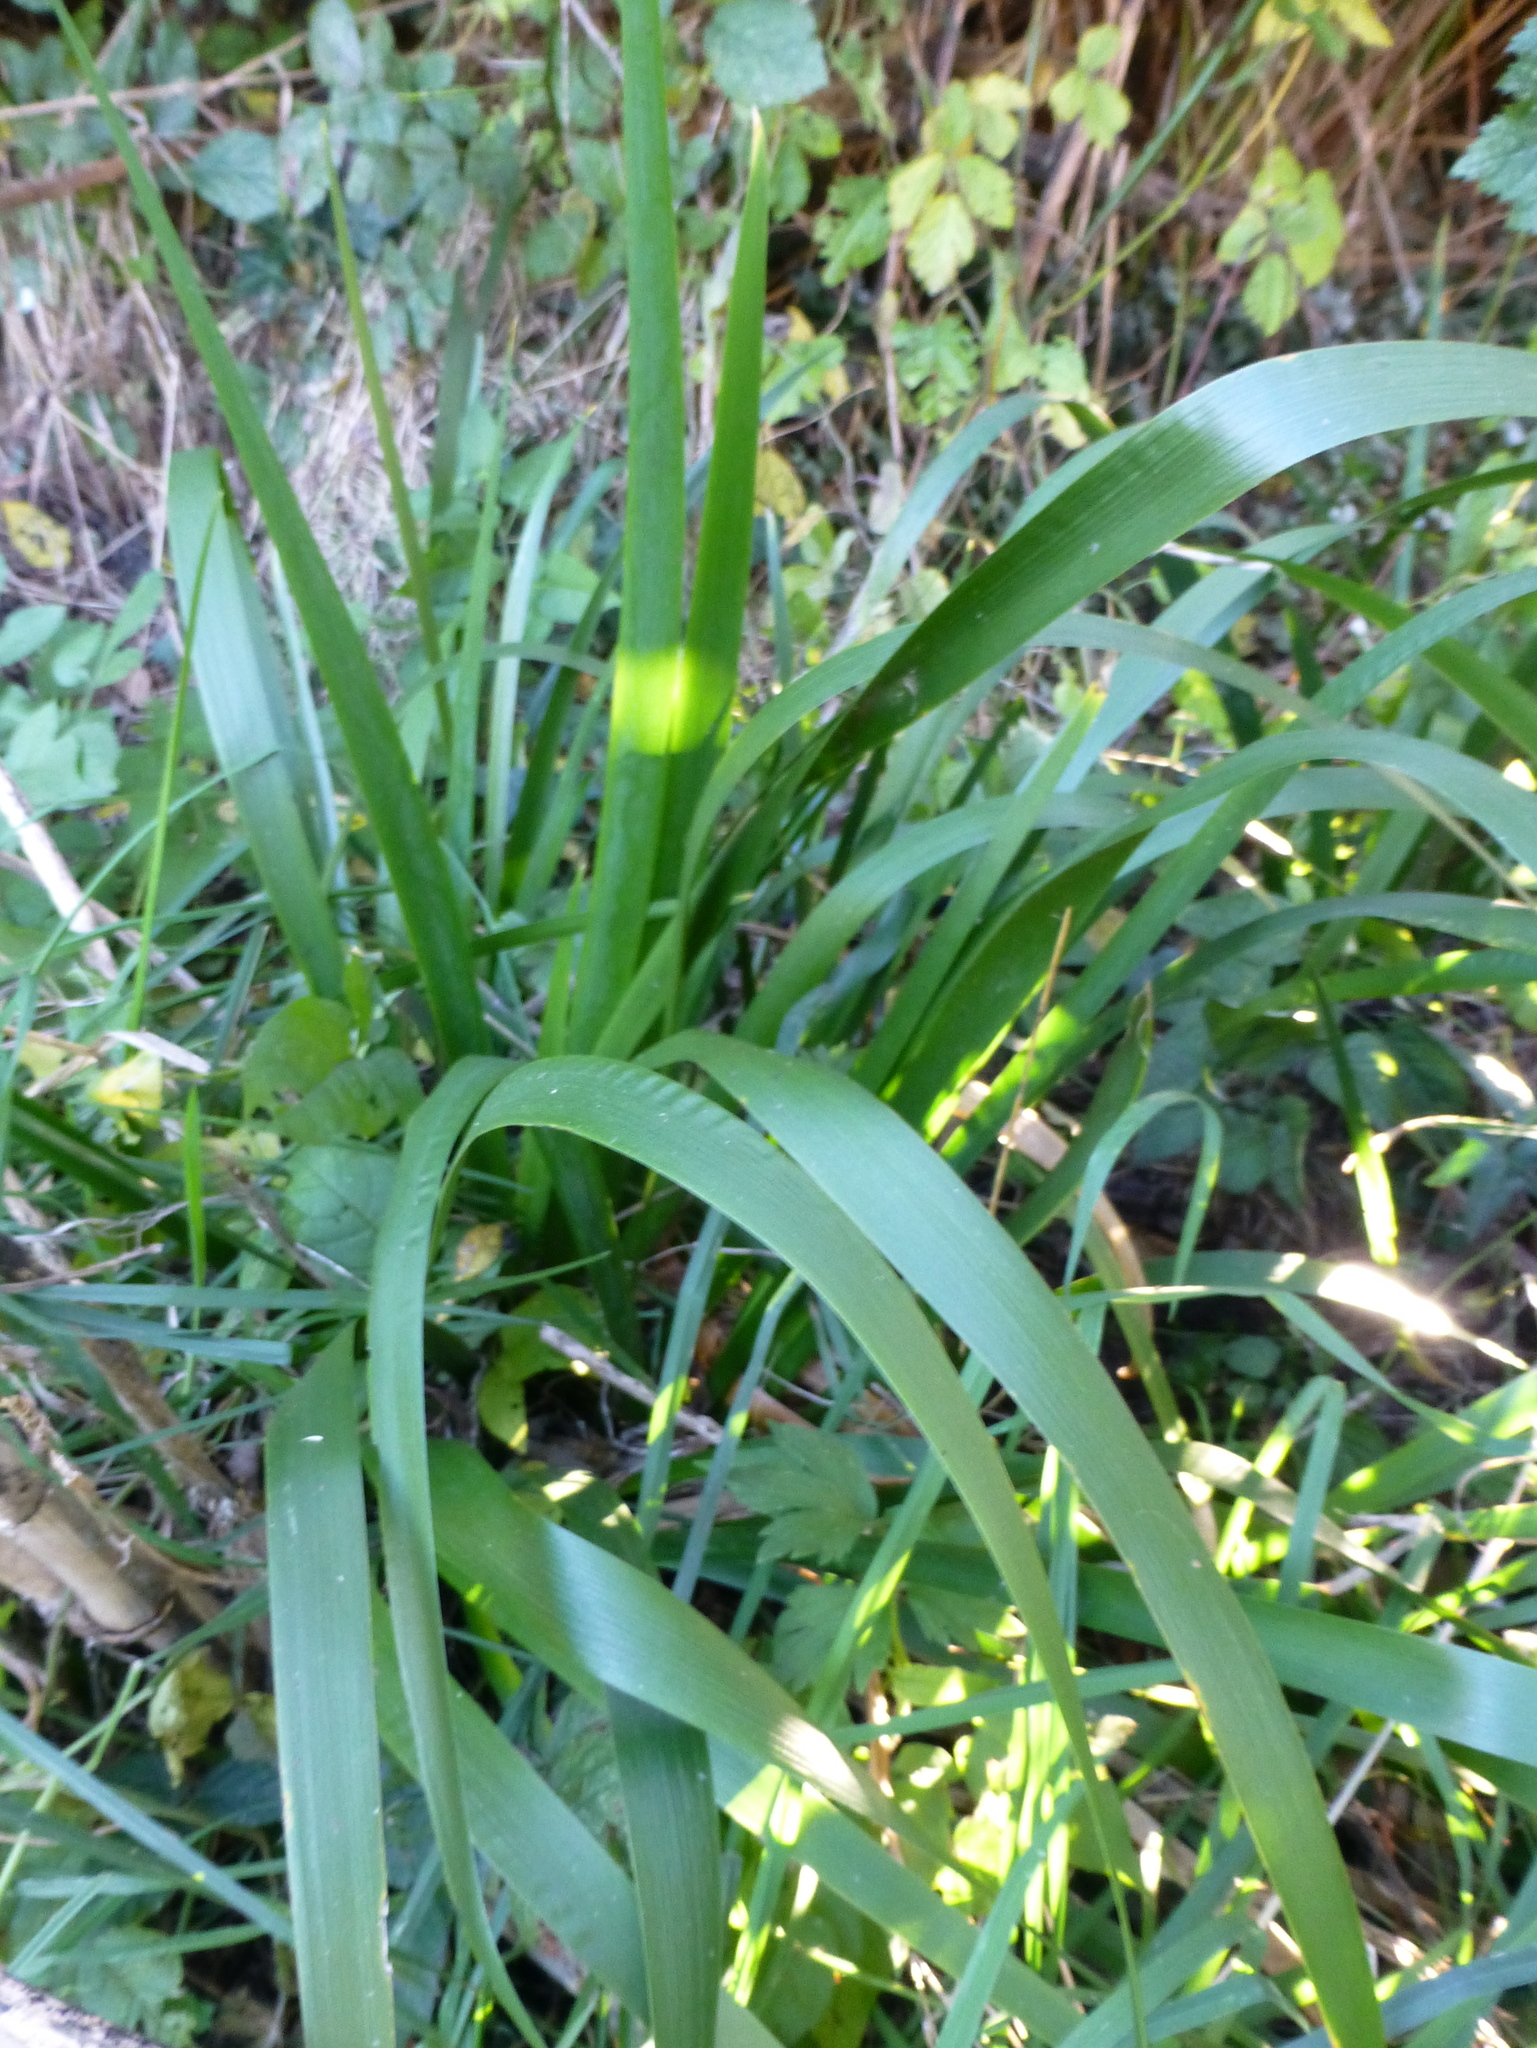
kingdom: Plantae
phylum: Tracheophyta
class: Liliopsida
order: Asparagales
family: Iridaceae
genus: Iris
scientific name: Iris pseudacorus
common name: Yellow flag
